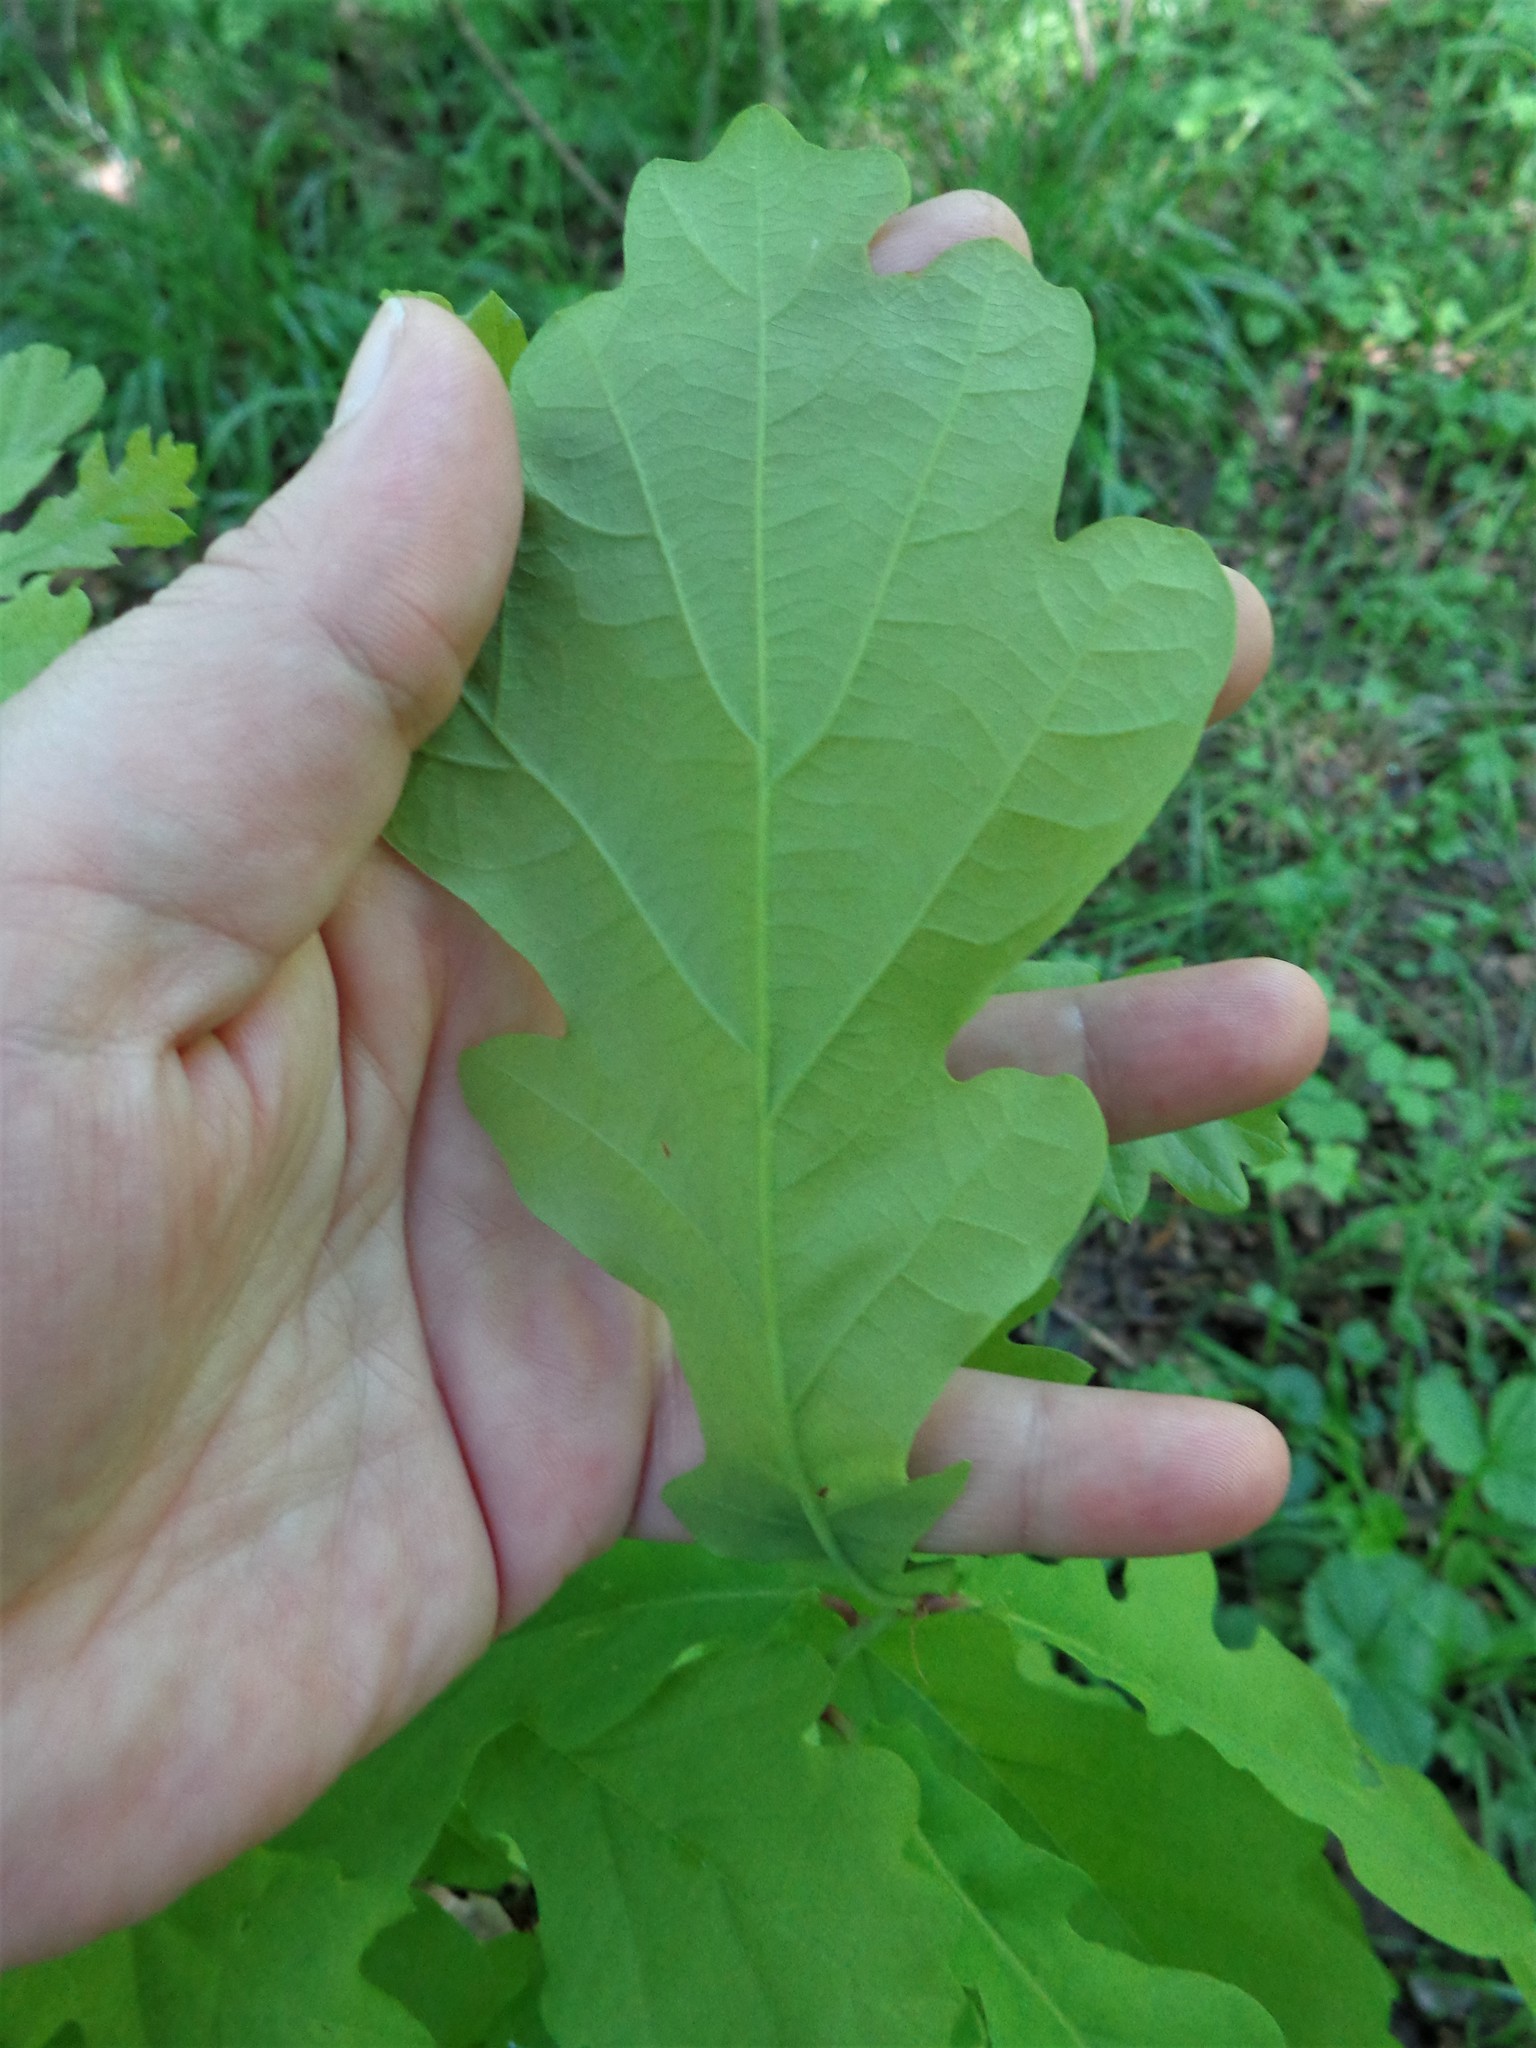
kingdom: Plantae
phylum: Tracheophyta
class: Magnoliopsida
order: Fagales
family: Fagaceae
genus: Quercus
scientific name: Quercus robur
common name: Pedunculate oak
